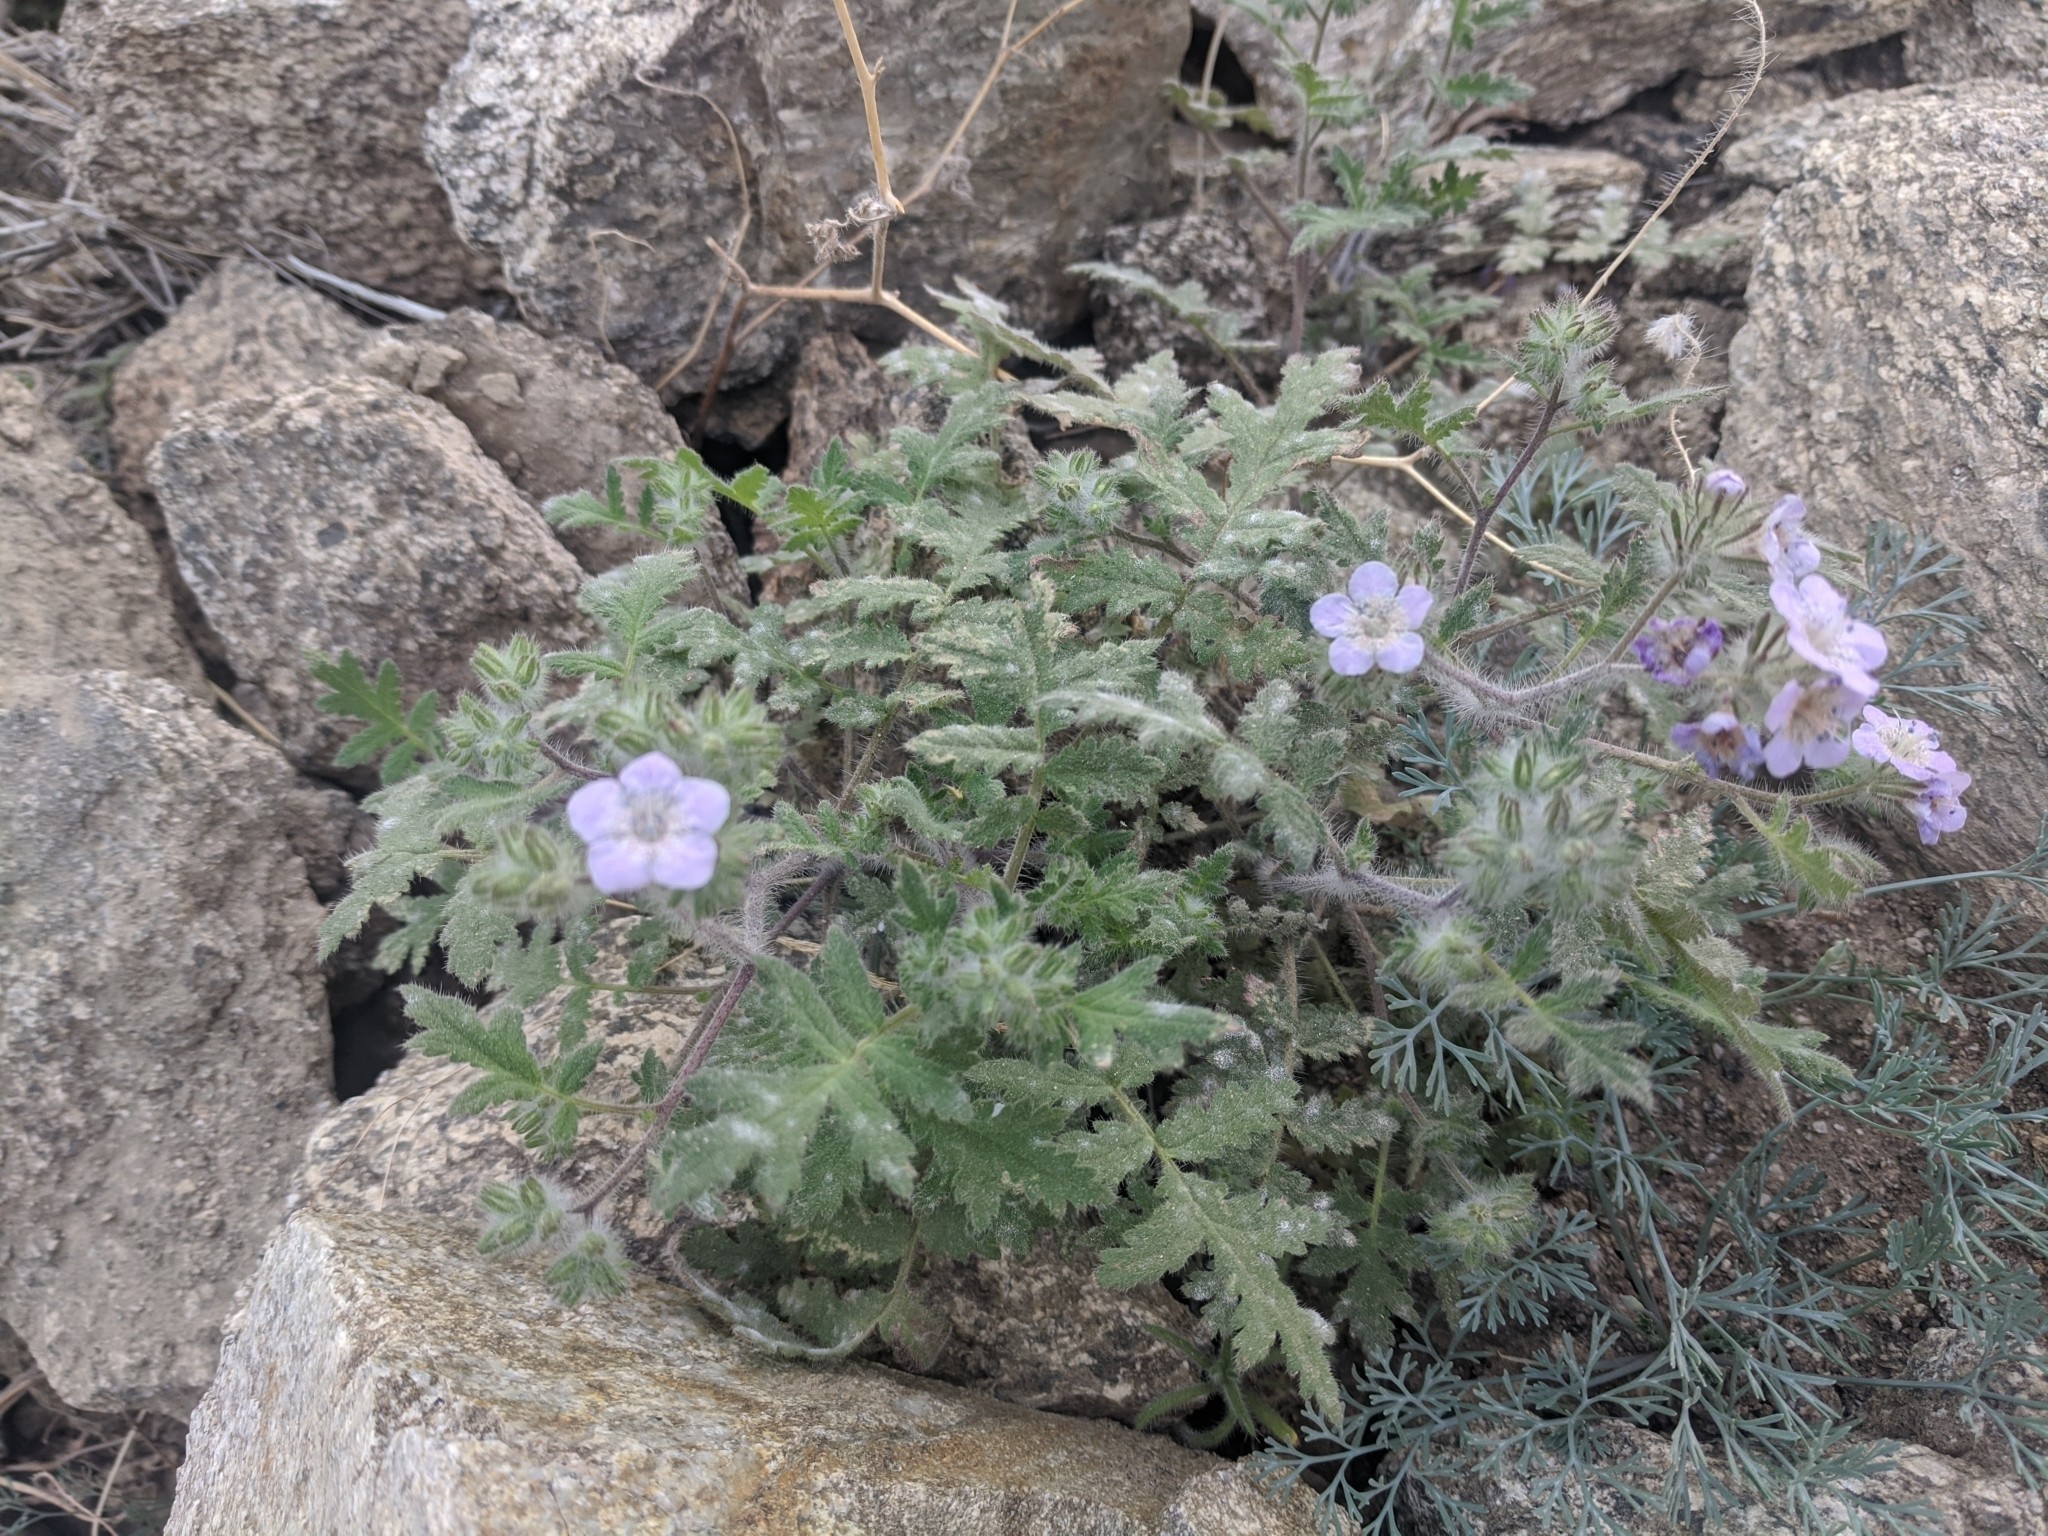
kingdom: Plantae
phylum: Tracheophyta
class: Magnoliopsida
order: Boraginales
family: Hydrophyllaceae
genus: Phacelia
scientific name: Phacelia cicutaria
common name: Caterpillar phacelia
